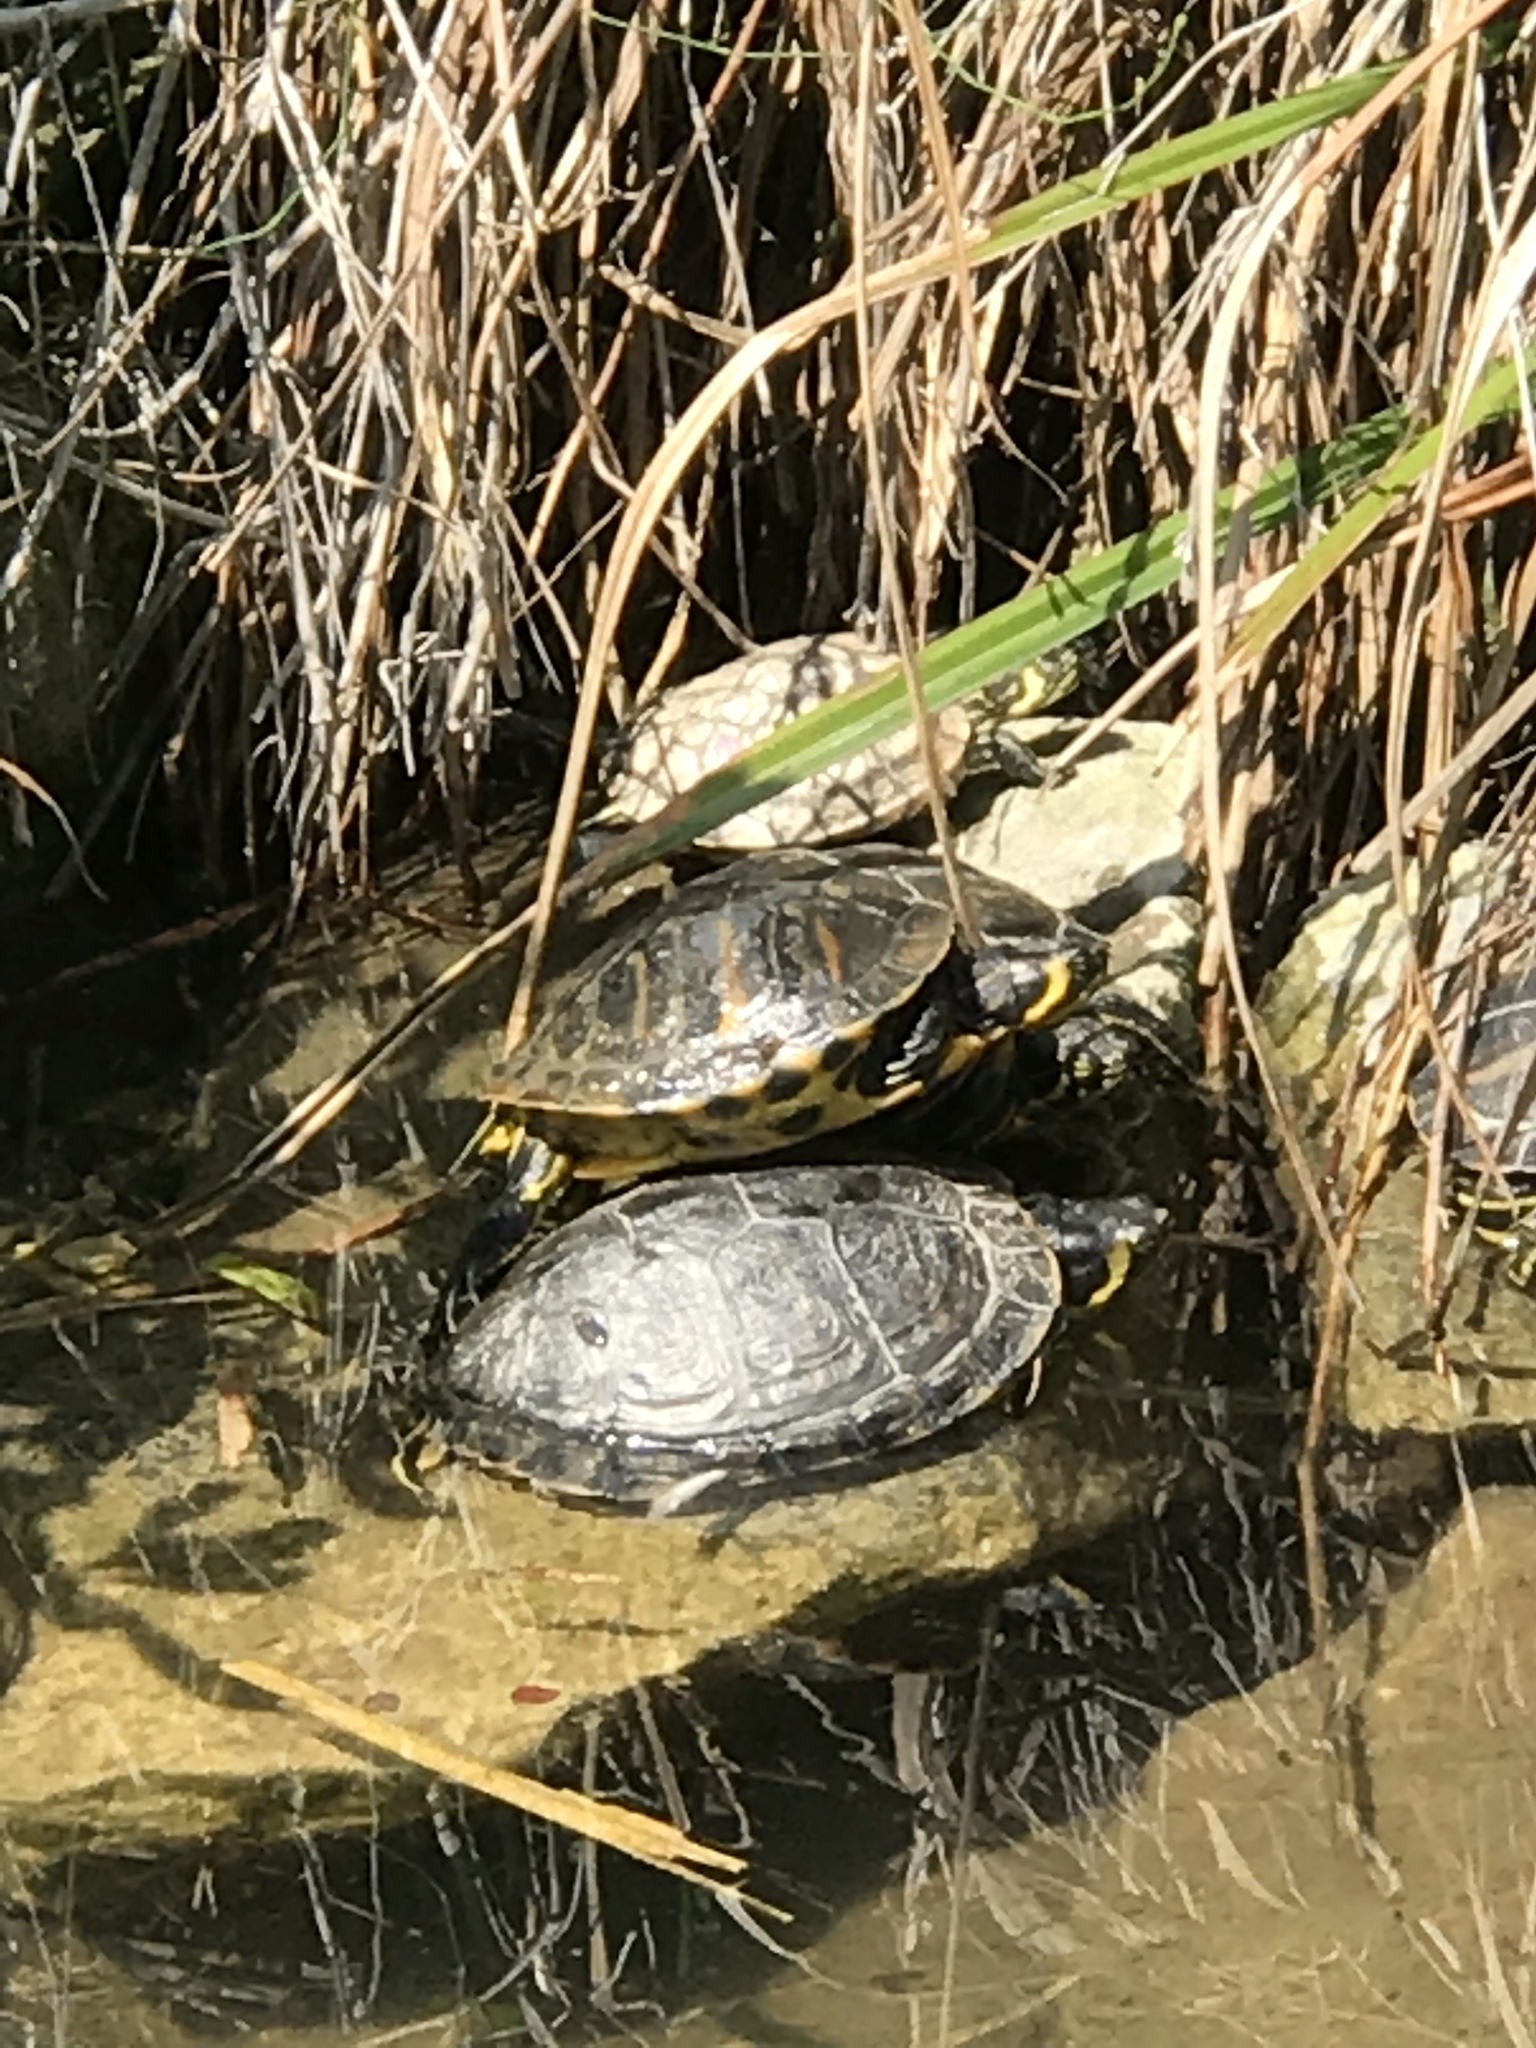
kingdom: Animalia
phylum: Chordata
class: Testudines
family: Emydidae
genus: Trachemys
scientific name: Trachemys scripta
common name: Slider
